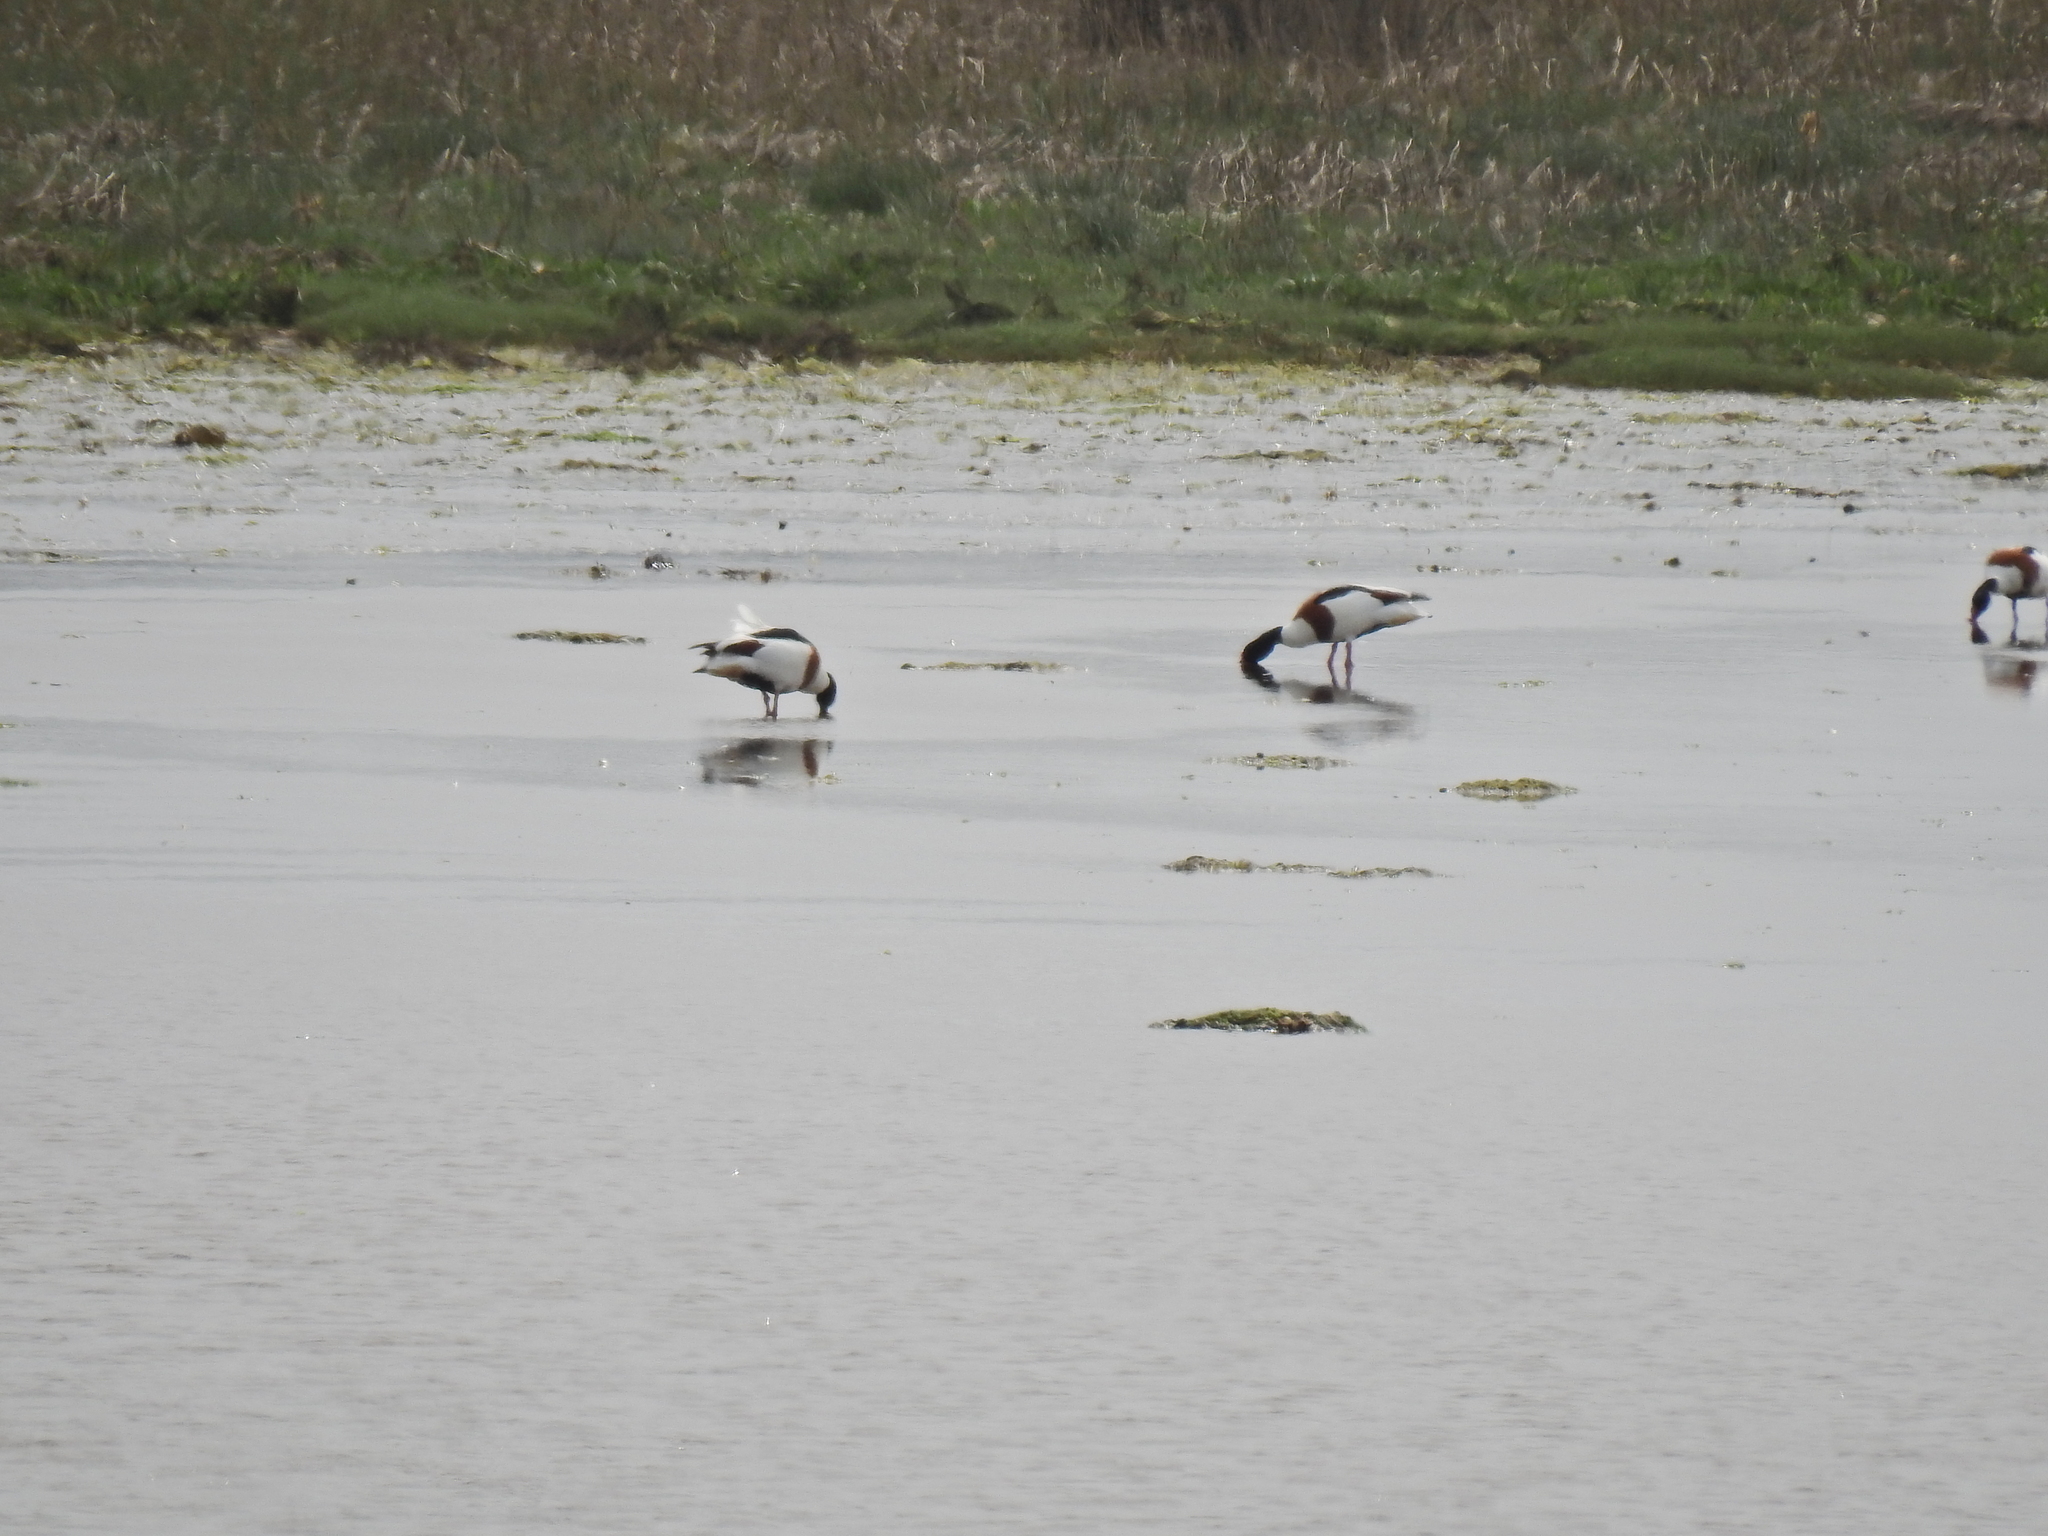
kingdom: Animalia
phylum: Chordata
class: Aves
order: Anseriformes
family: Anatidae
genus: Tadorna
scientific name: Tadorna tadorna
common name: Common shelduck
